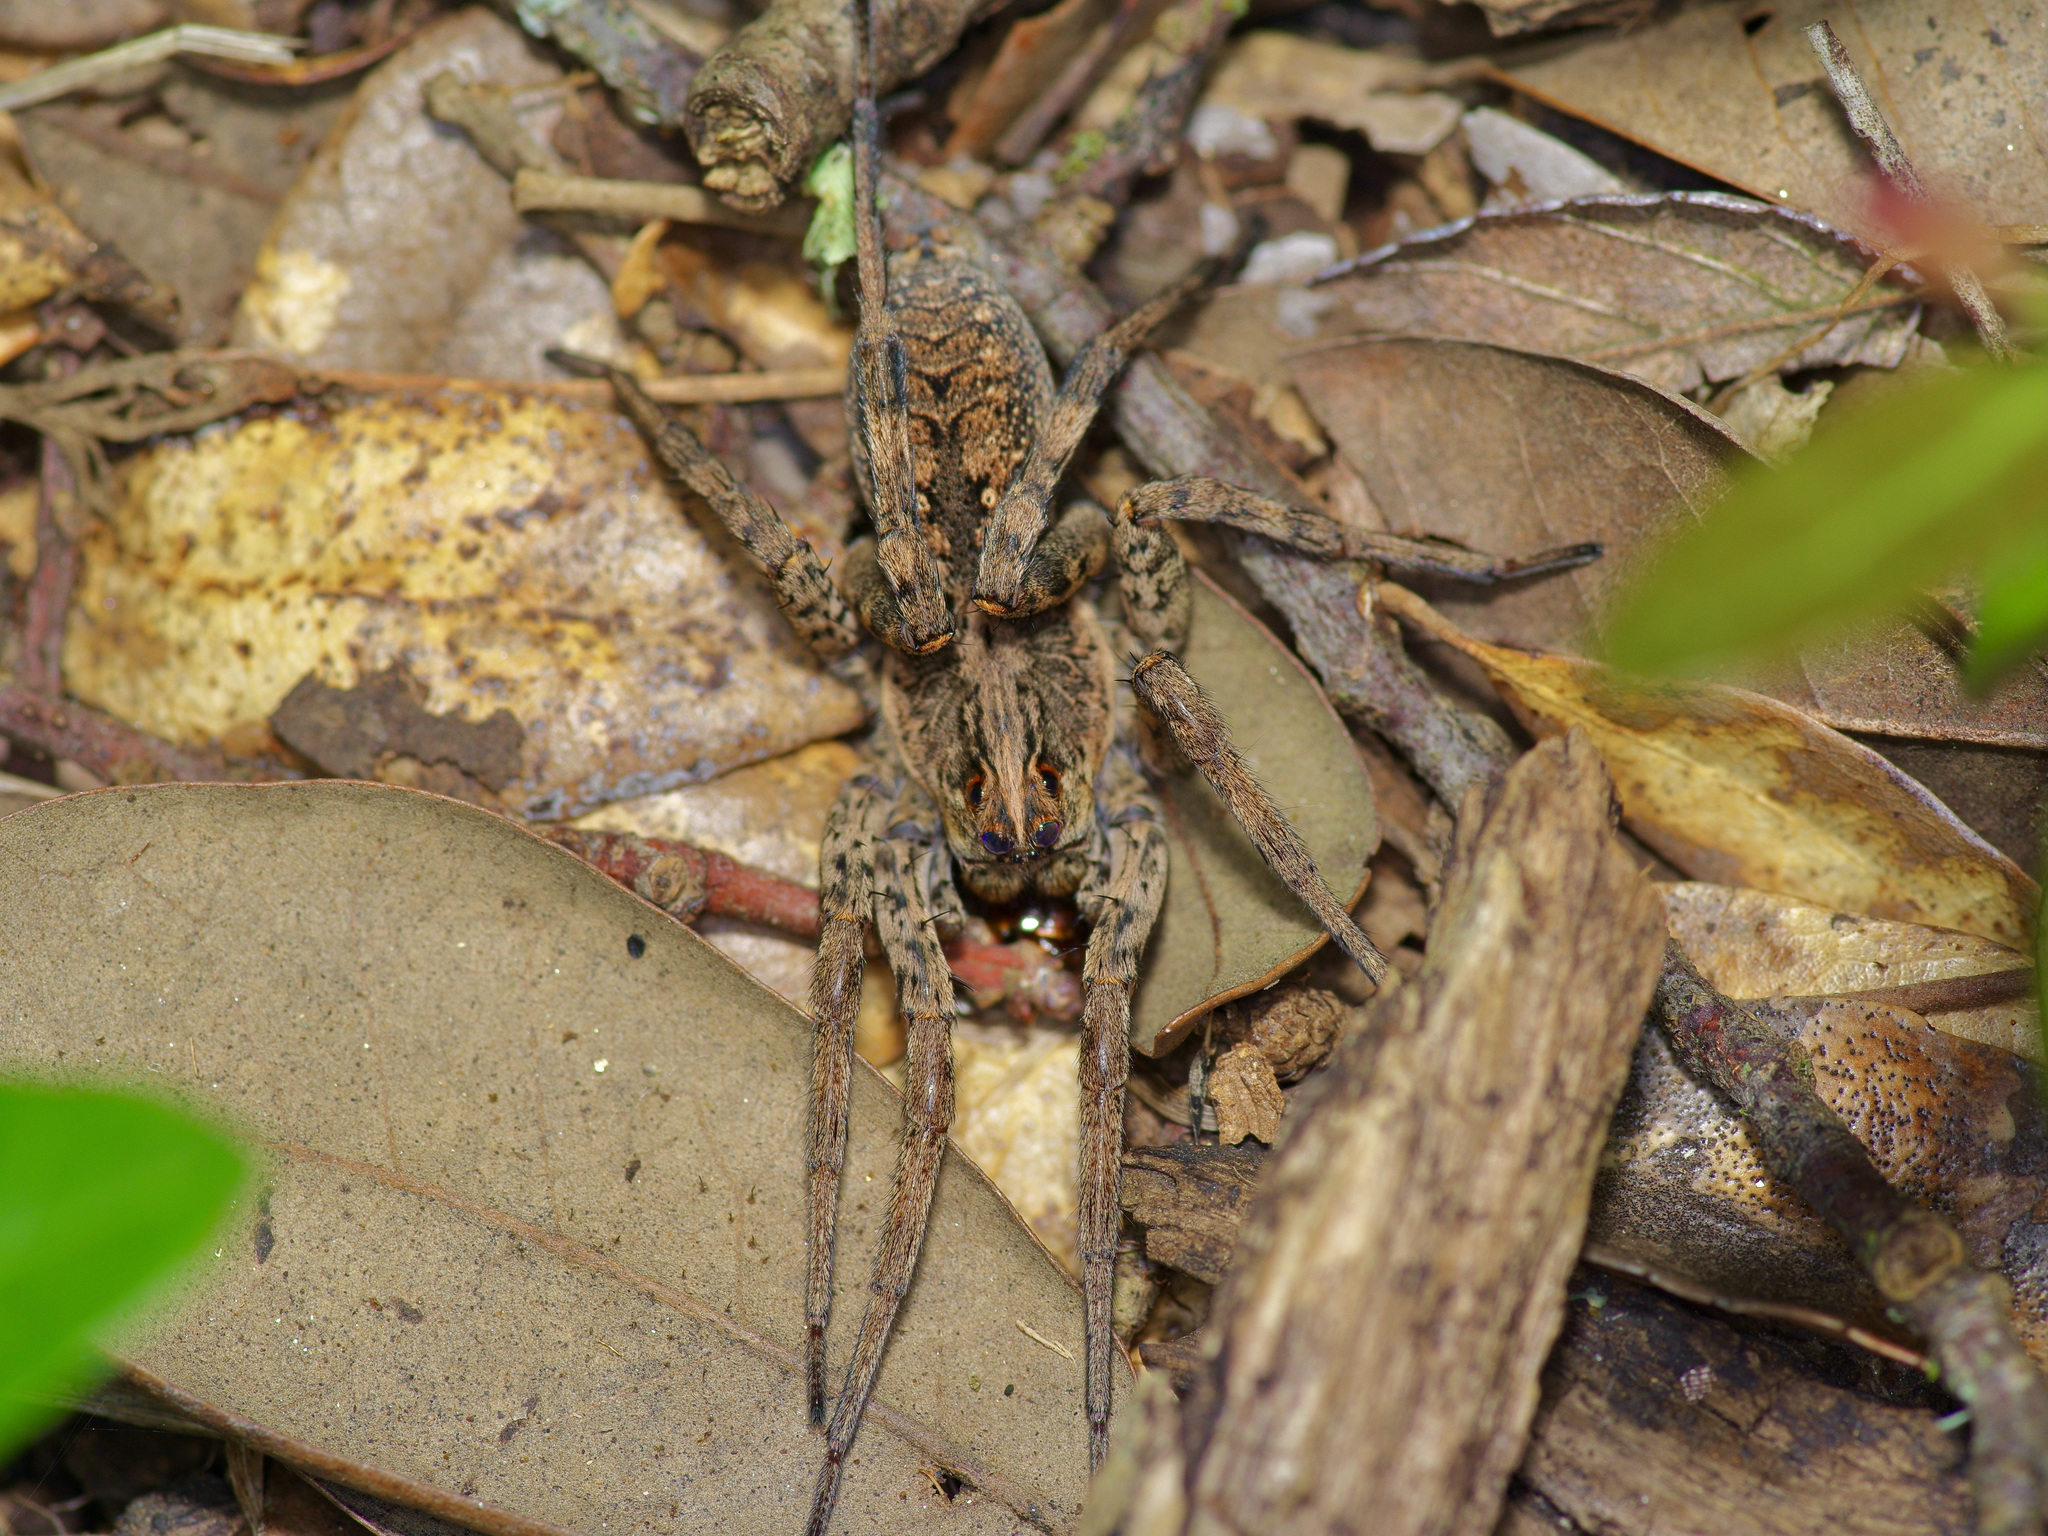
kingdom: Animalia
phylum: Arthropoda
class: Arachnida
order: Araneae
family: Lycosidae
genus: Hogna
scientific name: Hogna antelucana
